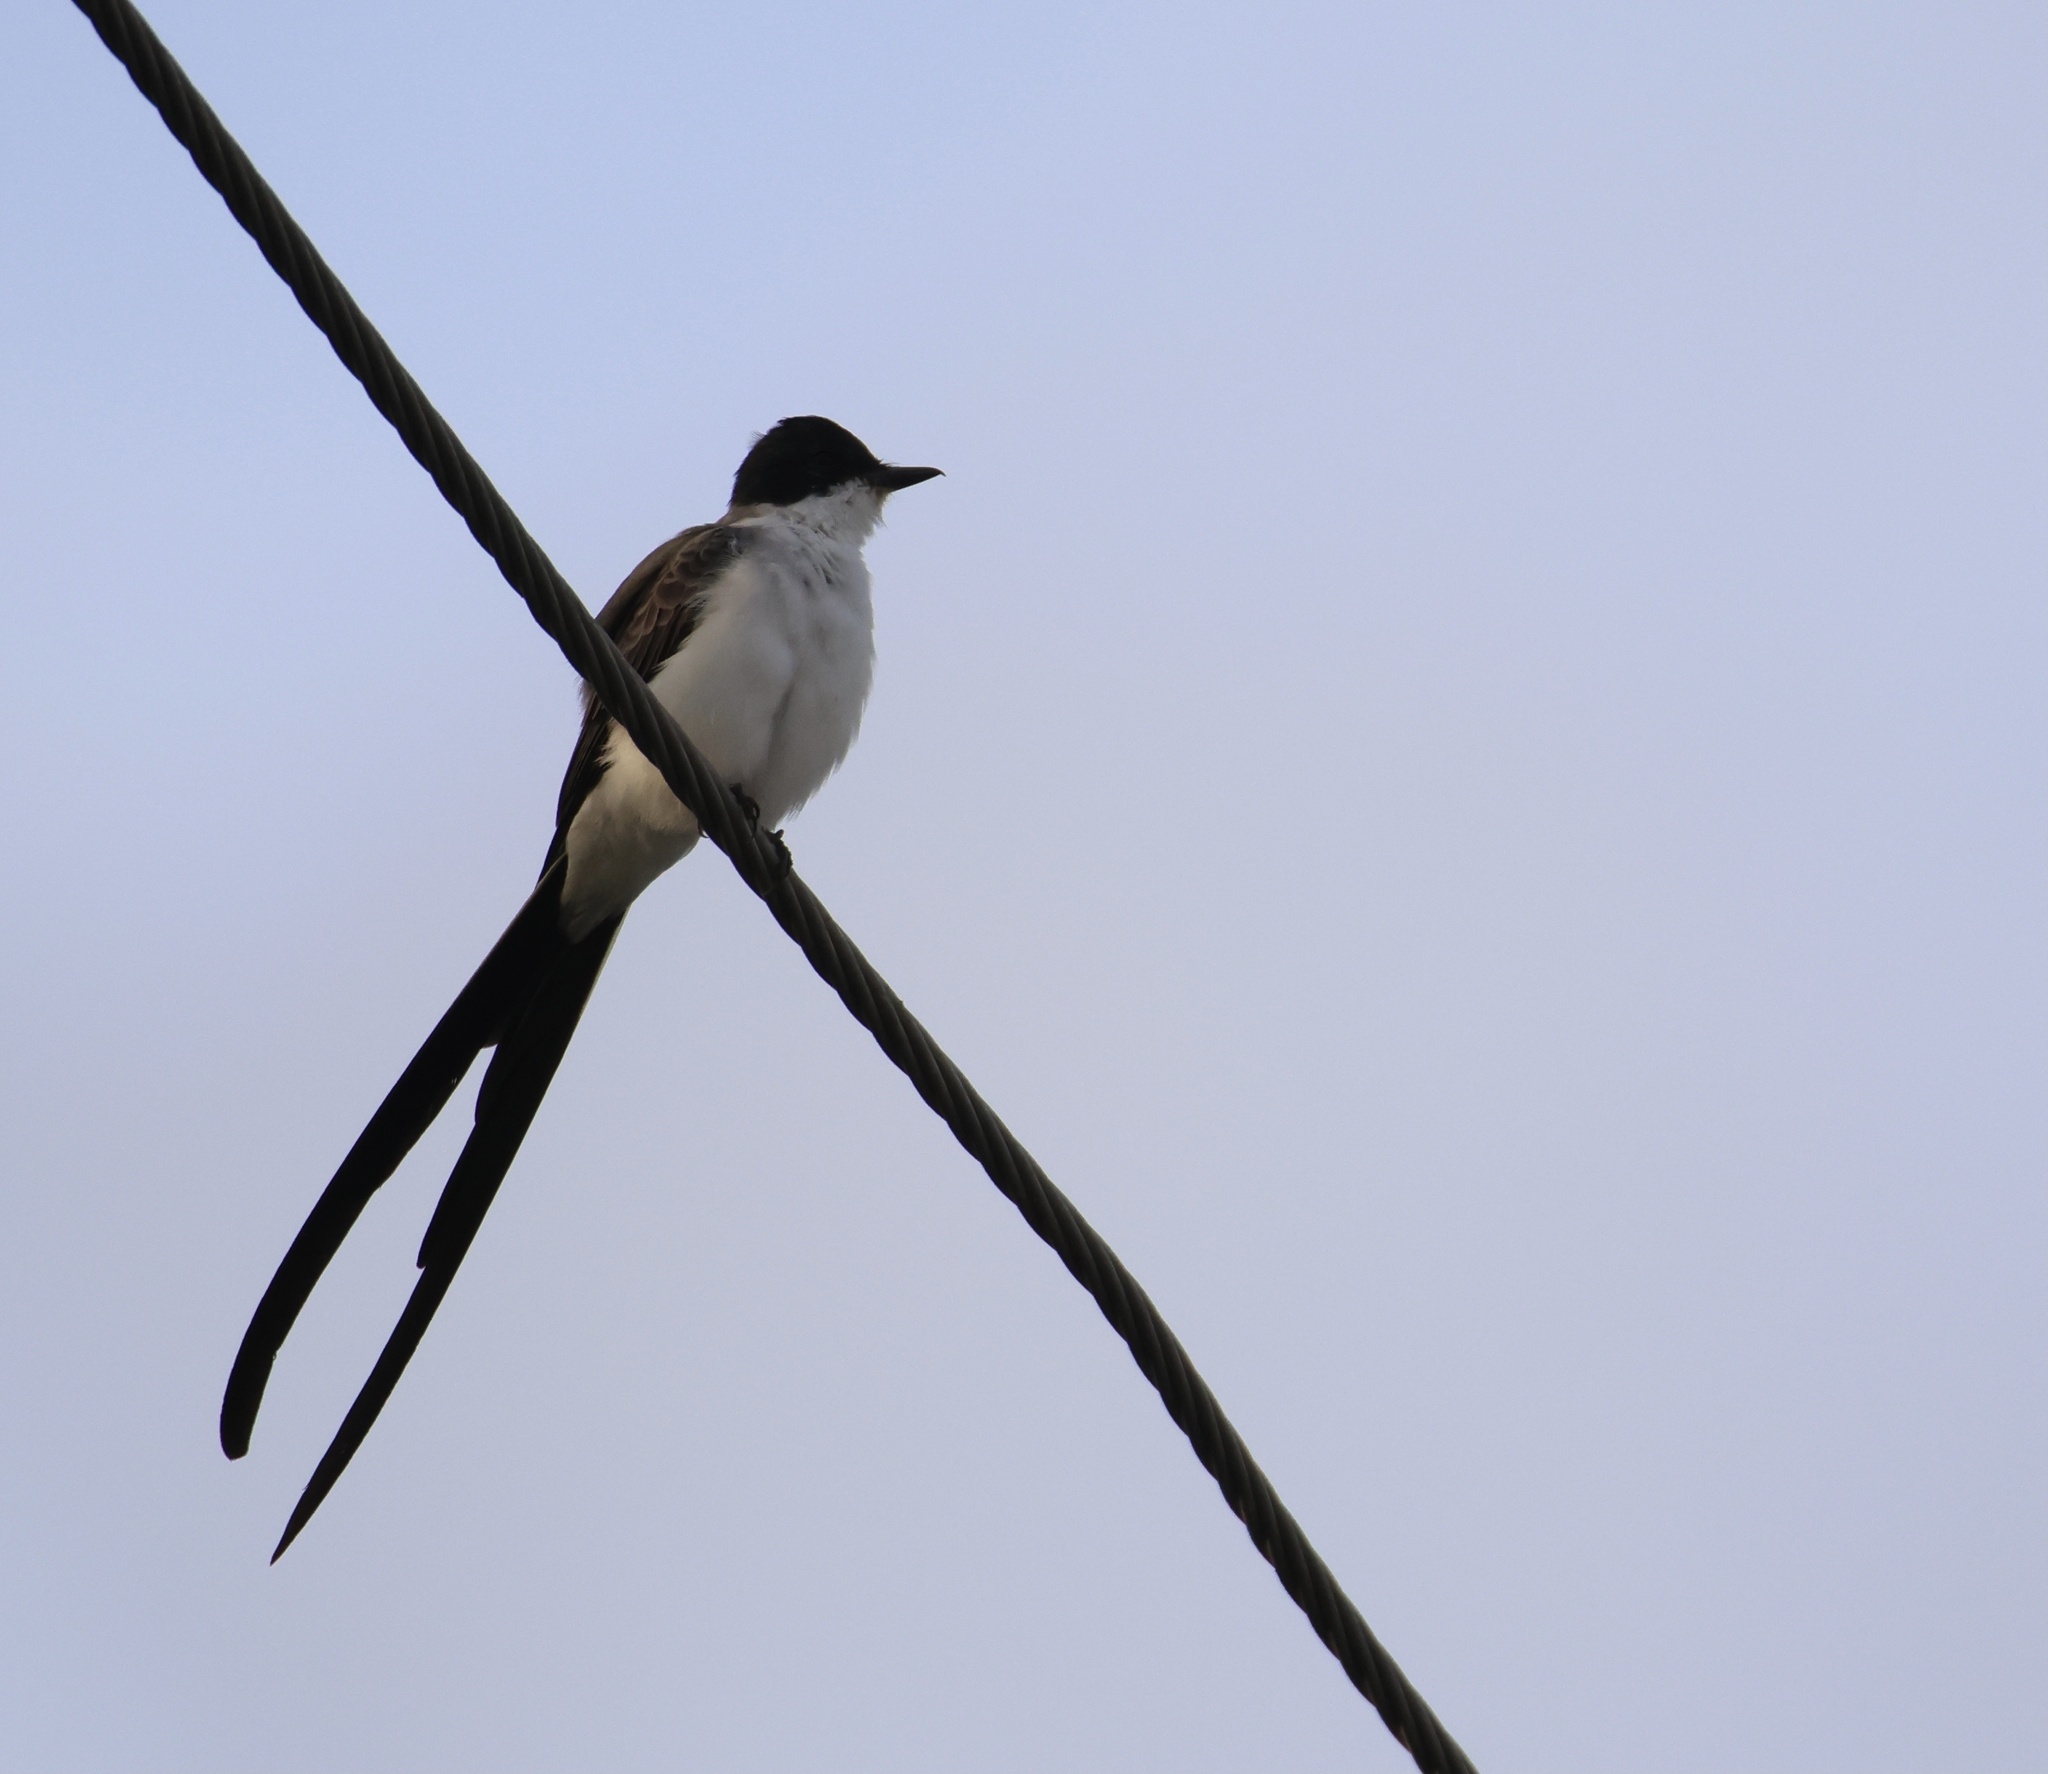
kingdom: Animalia
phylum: Chordata
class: Aves
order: Passeriformes
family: Tyrannidae
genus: Tyrannus
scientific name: Tyrannus savana
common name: Fork-tailed flycatcher
